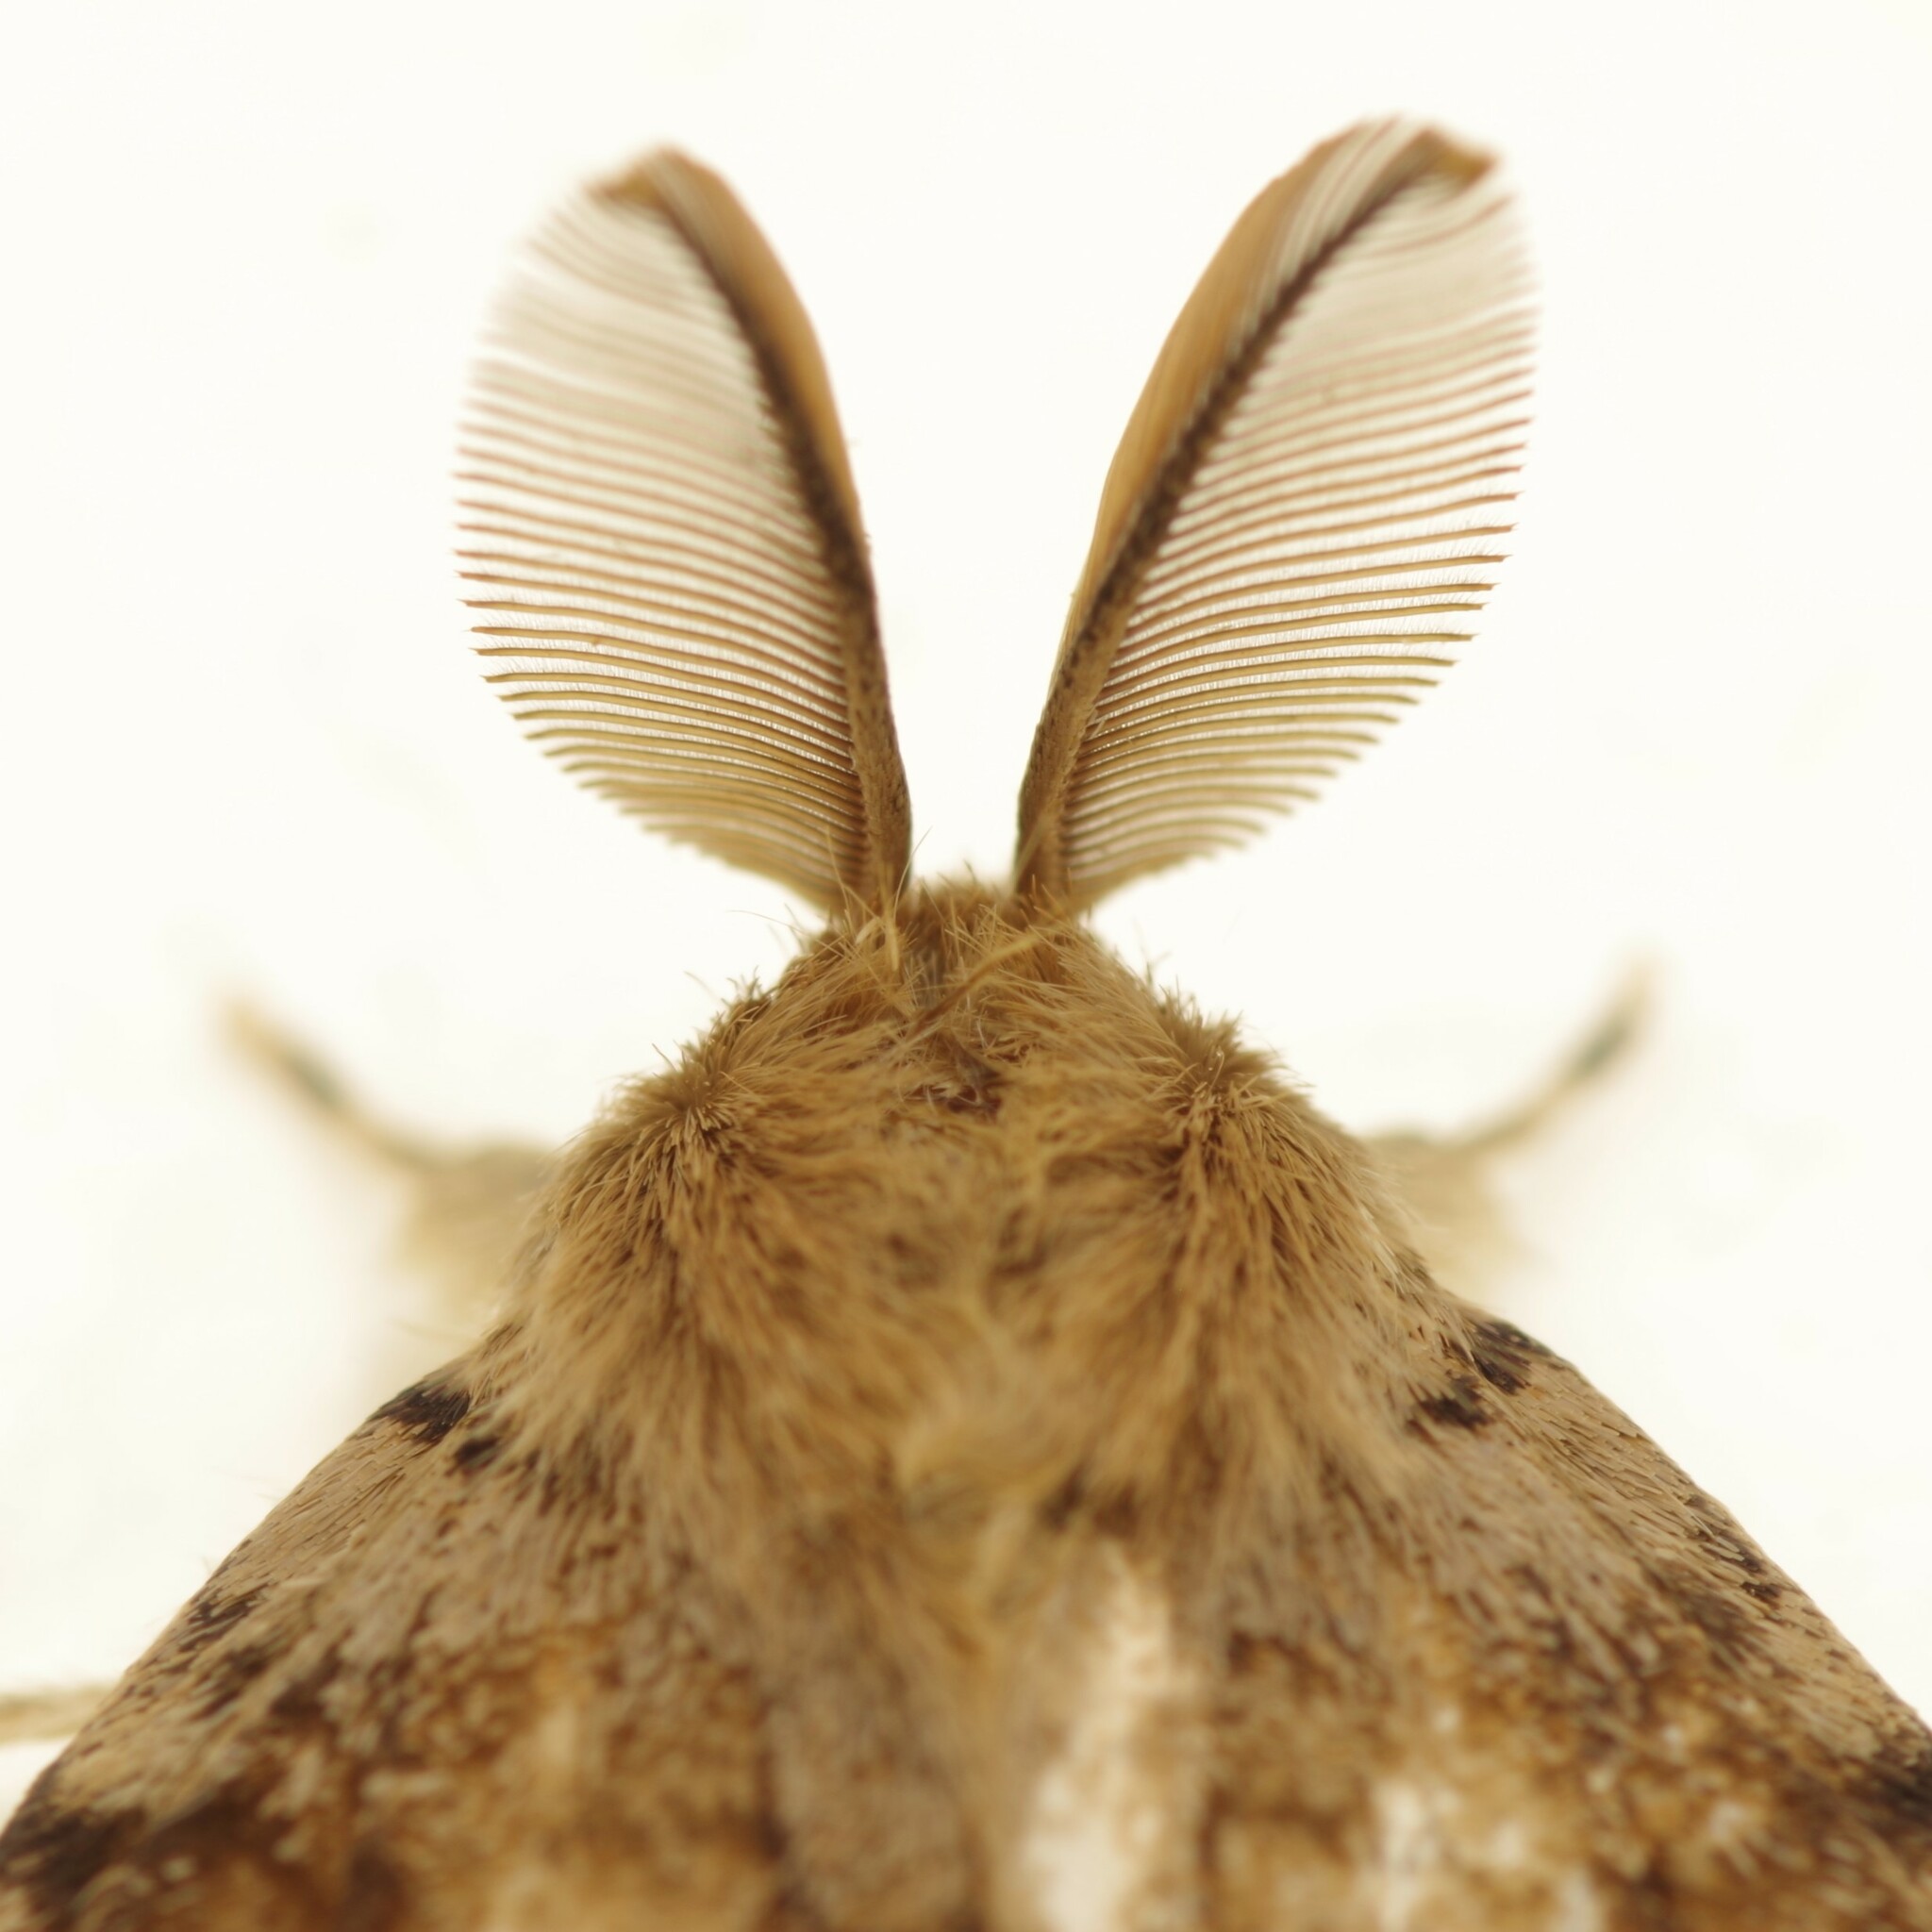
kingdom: Animalia
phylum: Arthropoda
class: Insecta
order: Lepidoptera
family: Erebidae
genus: Lymantria
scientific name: Lymantria dispar
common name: Gypsy moth
